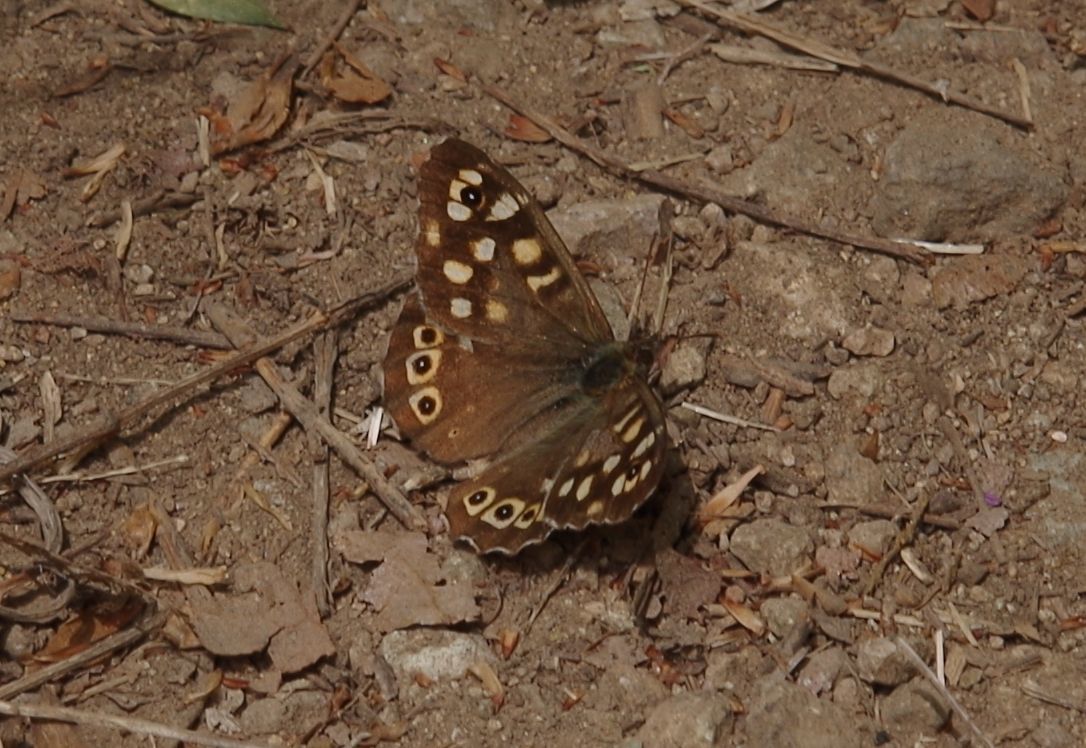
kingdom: Animalia
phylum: Arthropoda
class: Insecta
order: Lepidoptera
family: Nymphalidae
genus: Pararge
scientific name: Pararge aegeria
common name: Speckled wood
